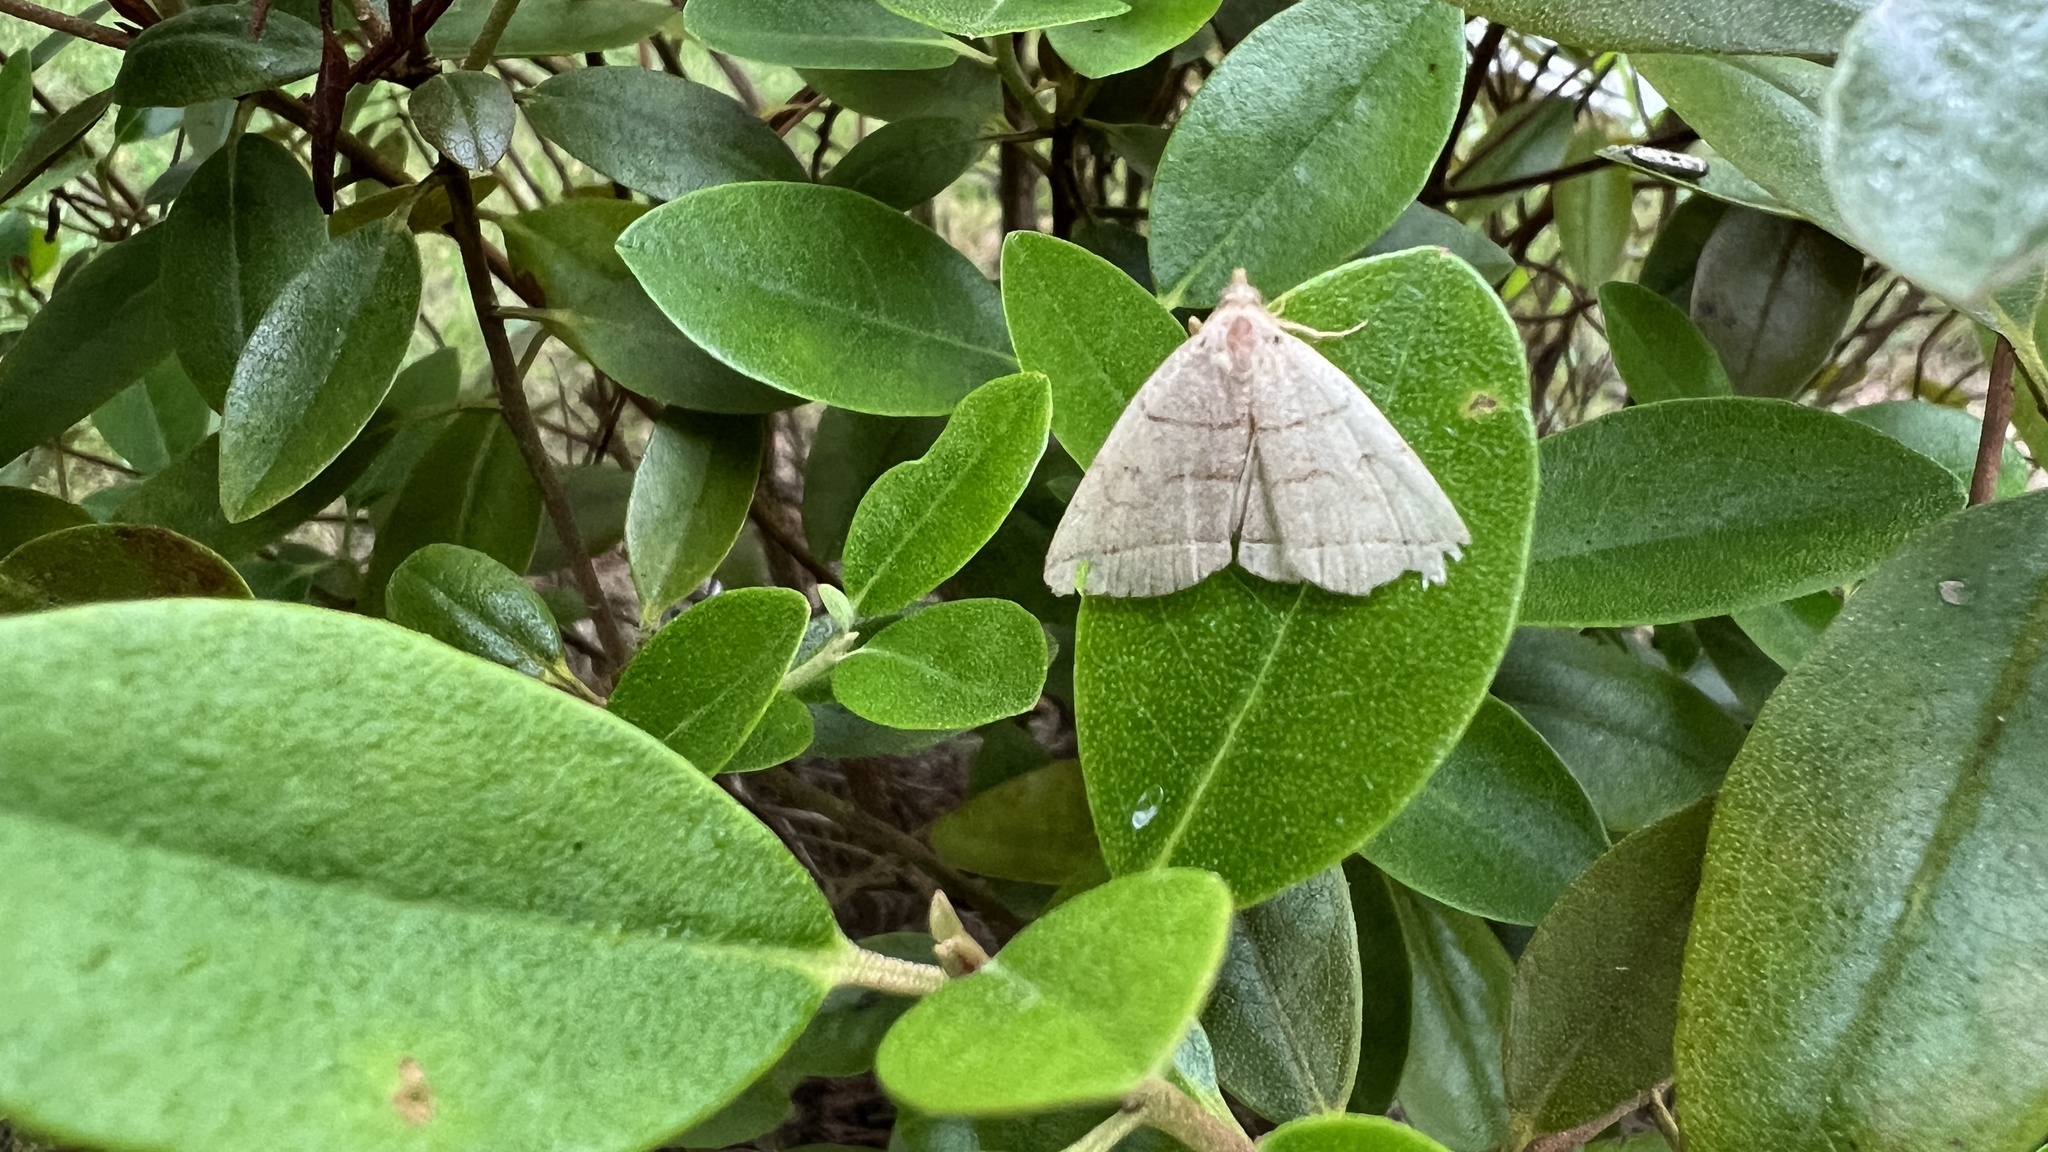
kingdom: Animalia
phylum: Arthropoda
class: Insecta
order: Lepidoptera
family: Erebidae
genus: Zanclognatha
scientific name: Zanclognatha cruralis
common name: Early fan-foot
